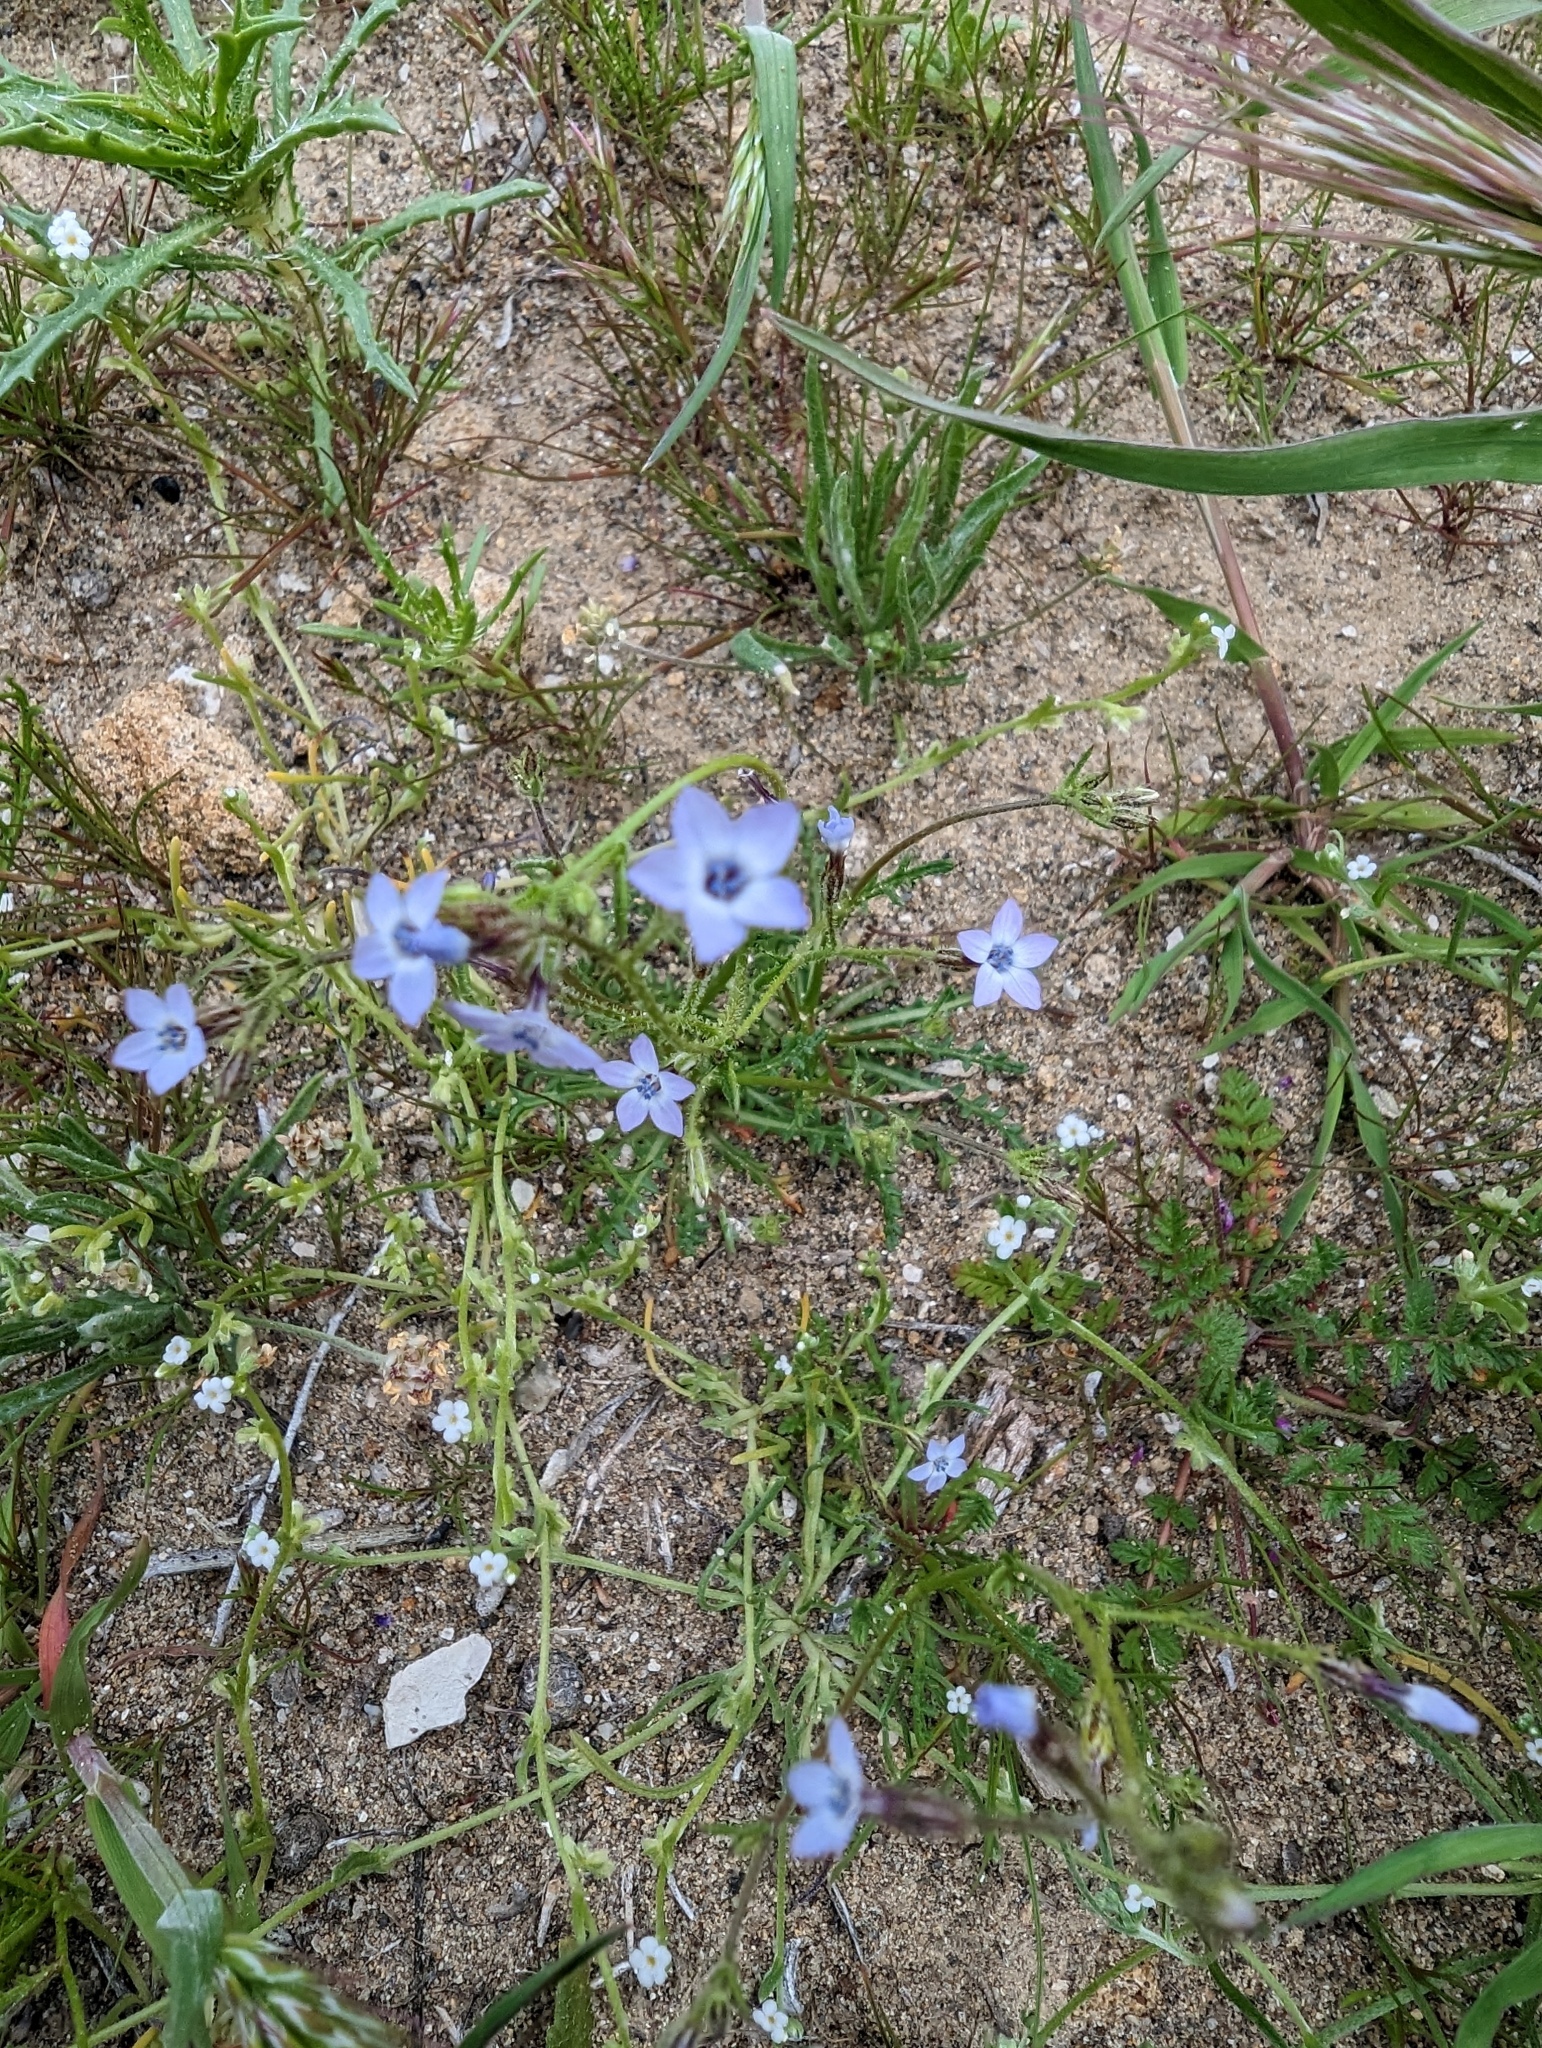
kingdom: Plantae
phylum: Tracheophyta
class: Magnoliopsida
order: Ericales
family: Polemoniaceae
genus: Gilia
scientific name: Gilia minor
